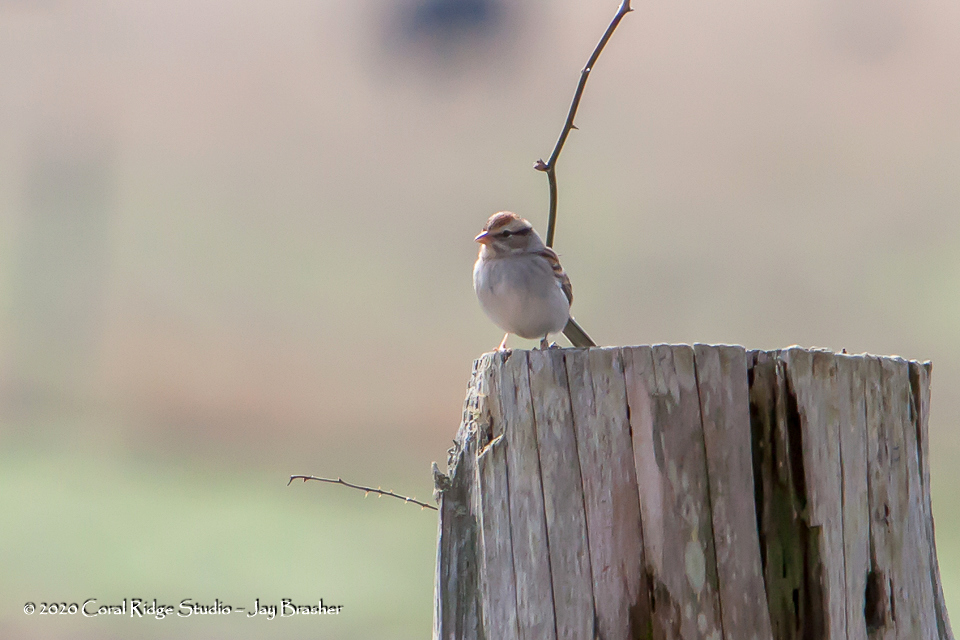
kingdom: Animalia
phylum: Chordata
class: Aves
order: Passeriformes
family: Passerellidae
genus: Spizella
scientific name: Spizella passerina
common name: Chipping sparrow
